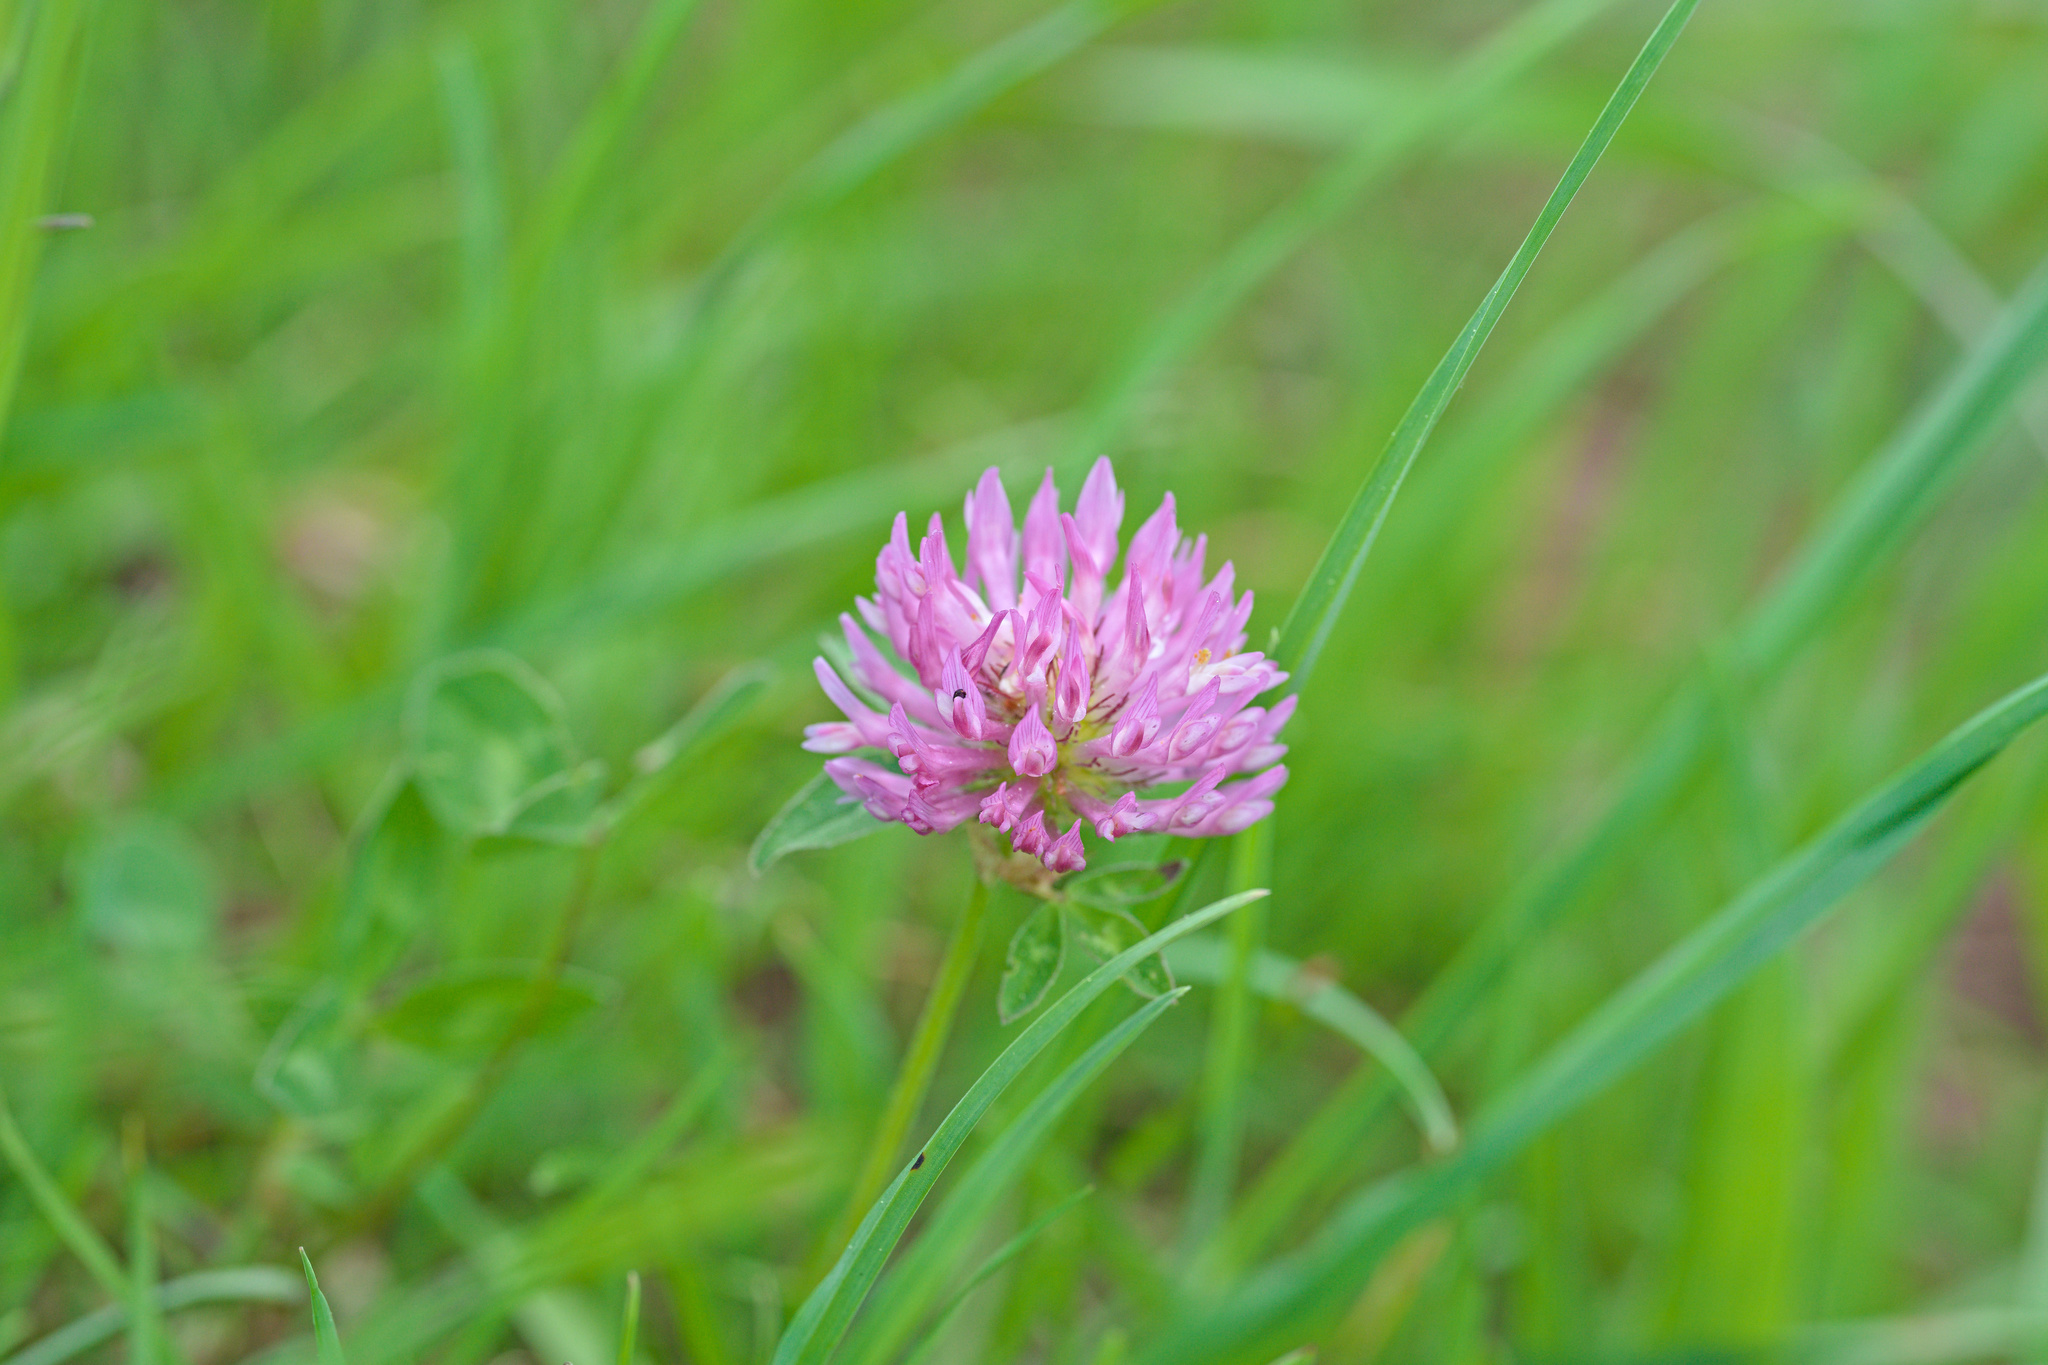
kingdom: Plantae
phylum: Tracheophyta
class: Magnoliopsida
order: Fabales
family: Fabaceae
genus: Trifolium
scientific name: Trifolium pratense
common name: Red clover
